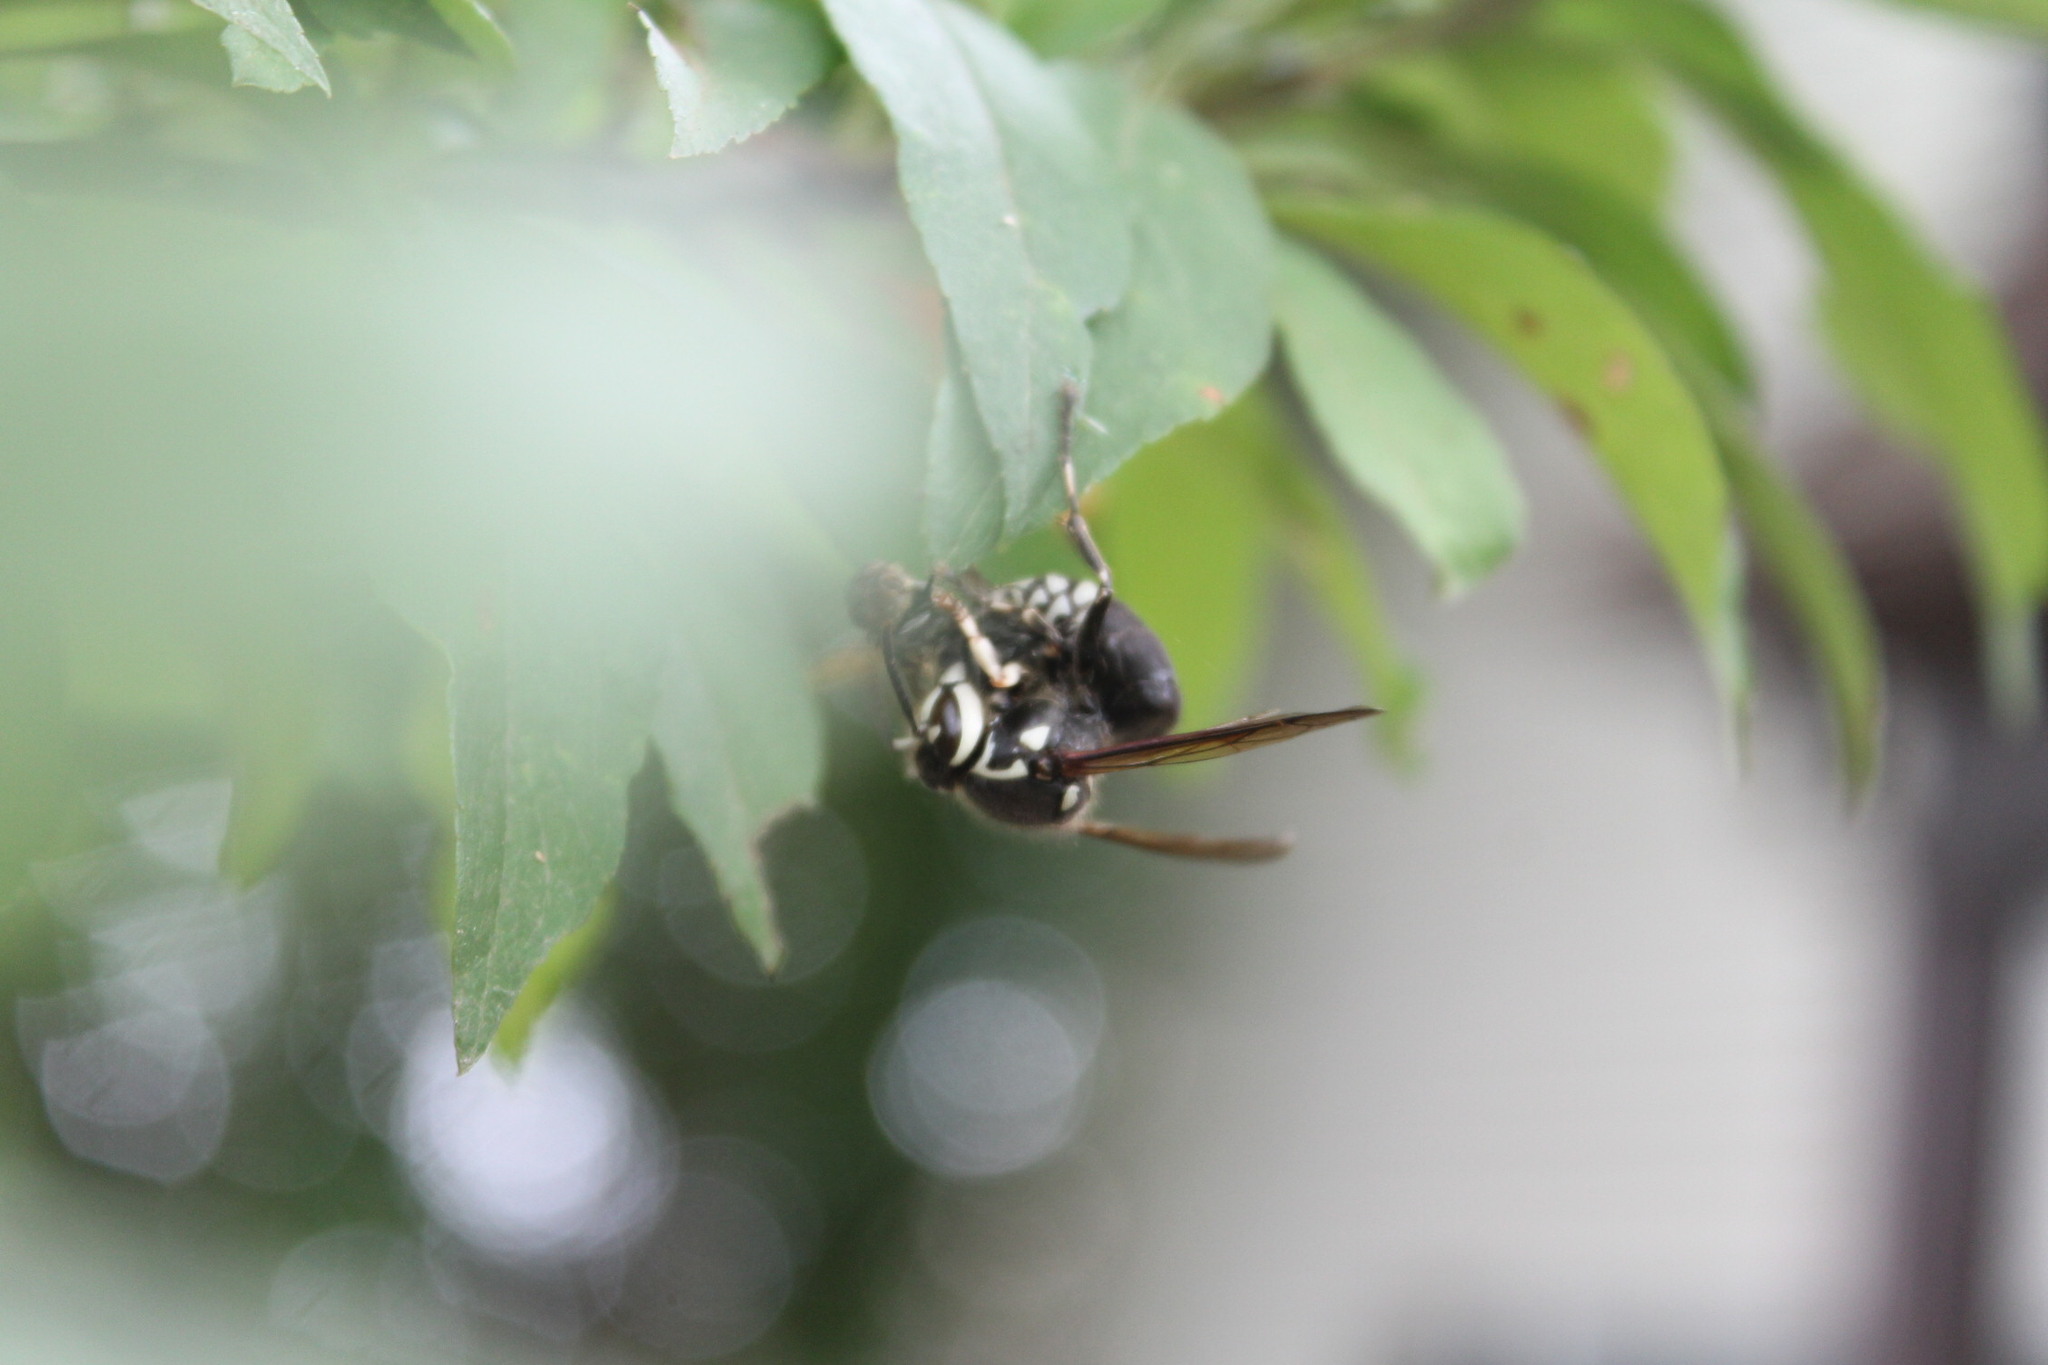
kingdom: Animalia
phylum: Arthropoda
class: Insecta
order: Hymenoptera
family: Vespidae
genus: Dolichovespula
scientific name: Dolichovespula maculata
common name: Bald-faced hornet
